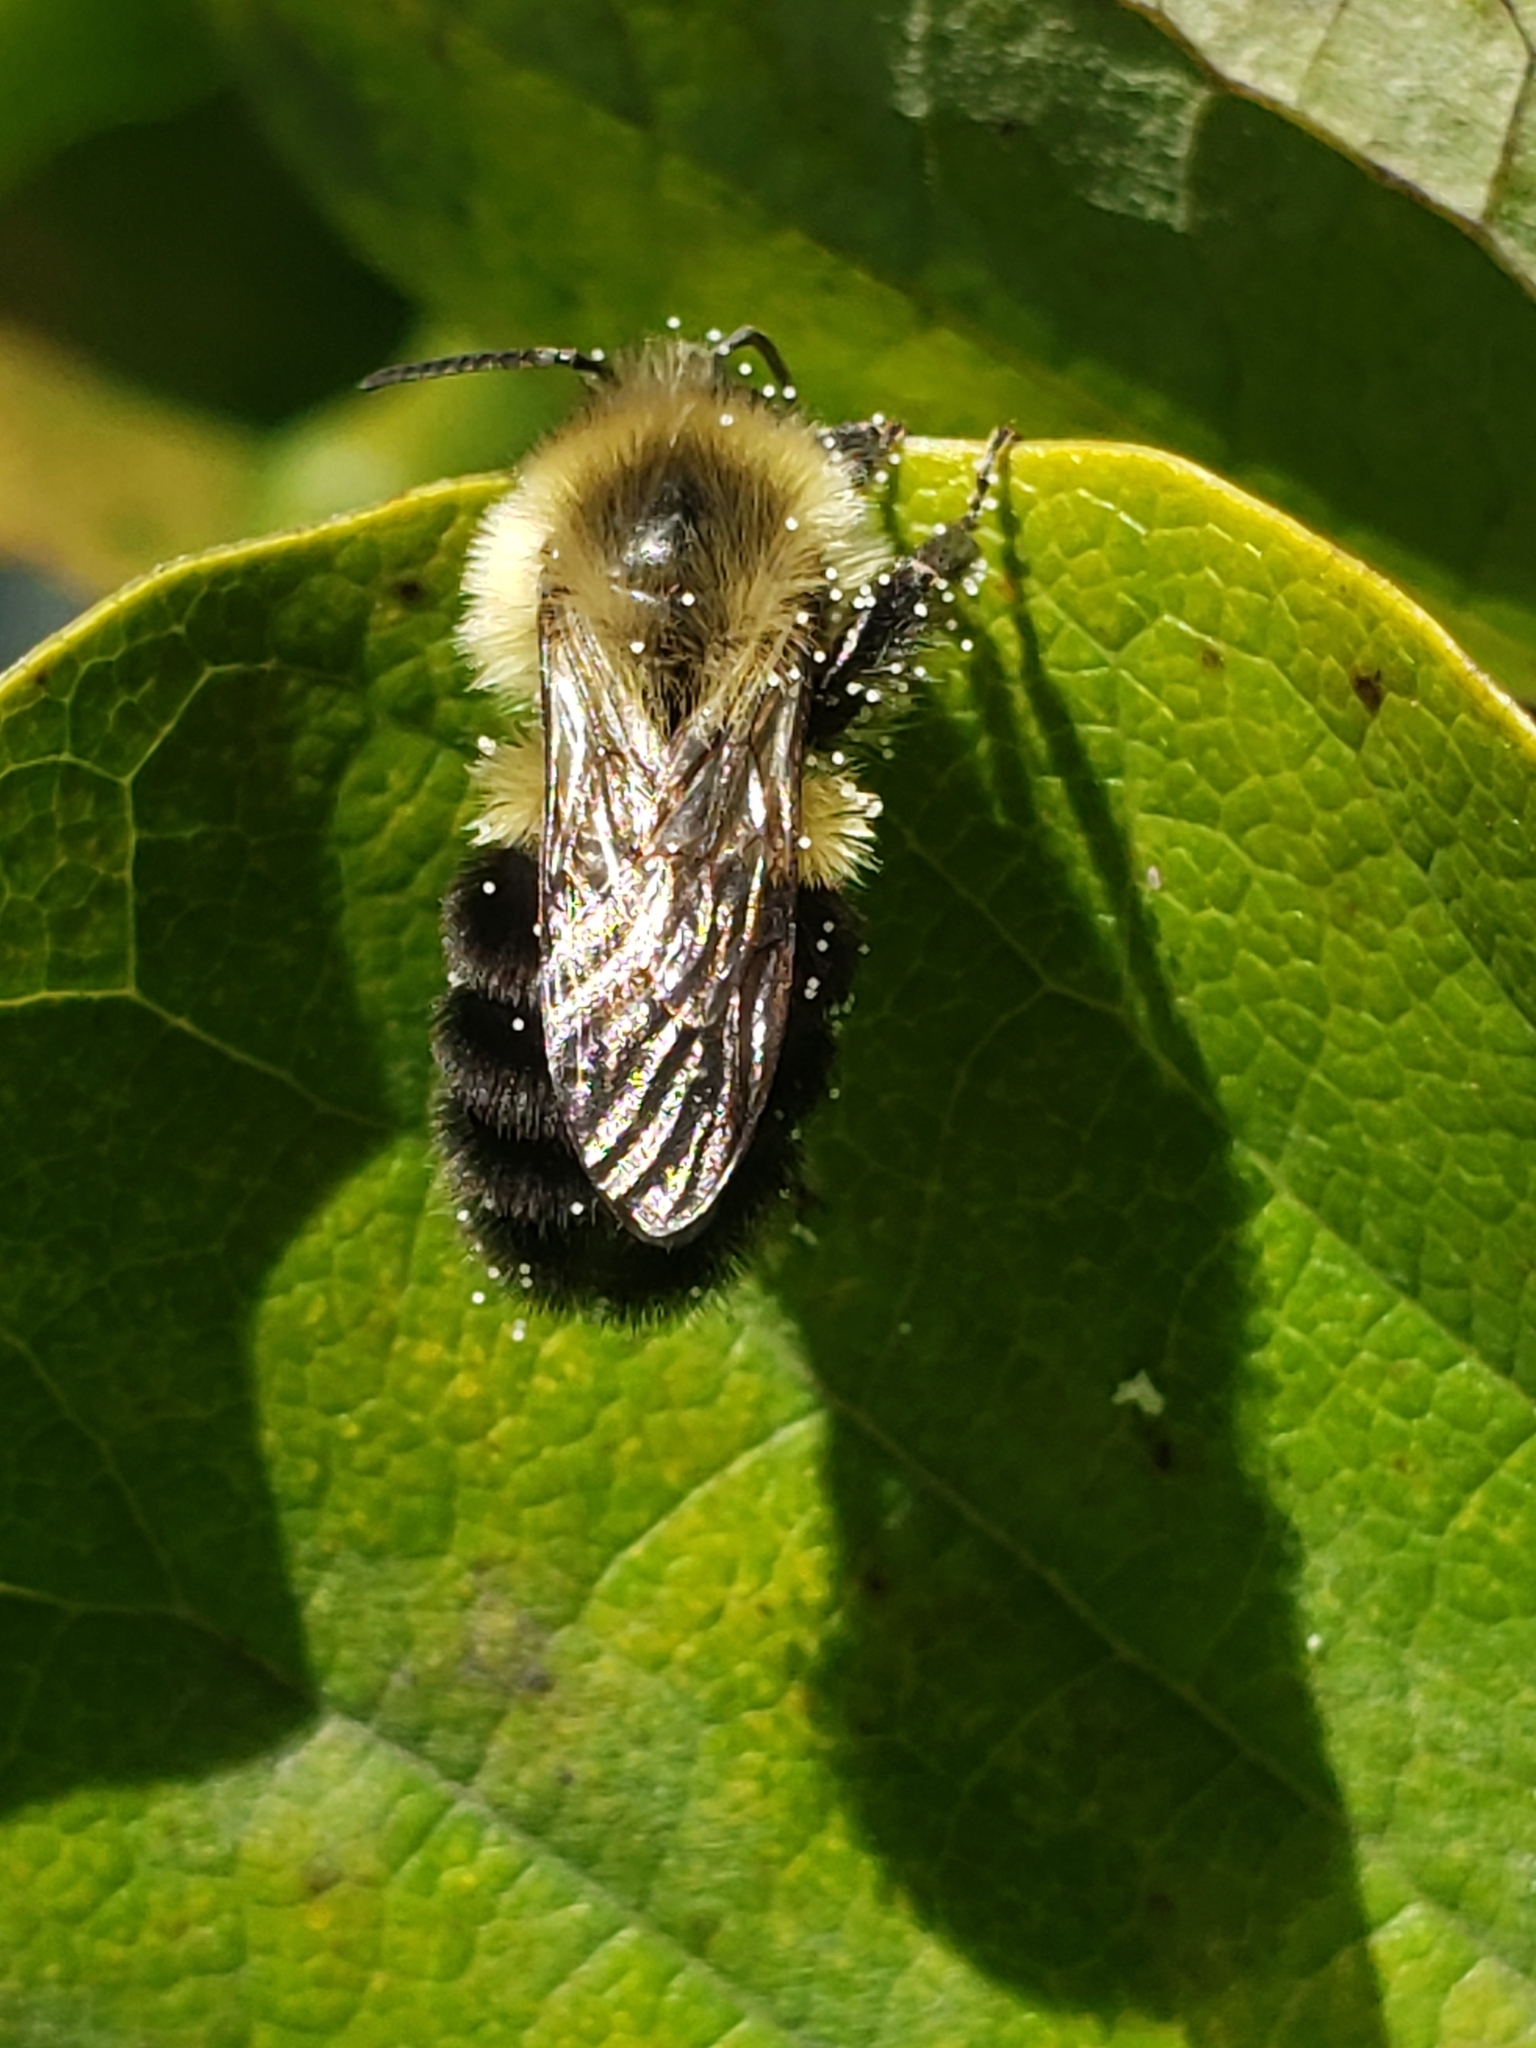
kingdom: Animalia
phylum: Arthropoda
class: Insecta
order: Hymenoptera
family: Apidae
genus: Bombus
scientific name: Bombus impatiens
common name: Common eastern bumble bee
